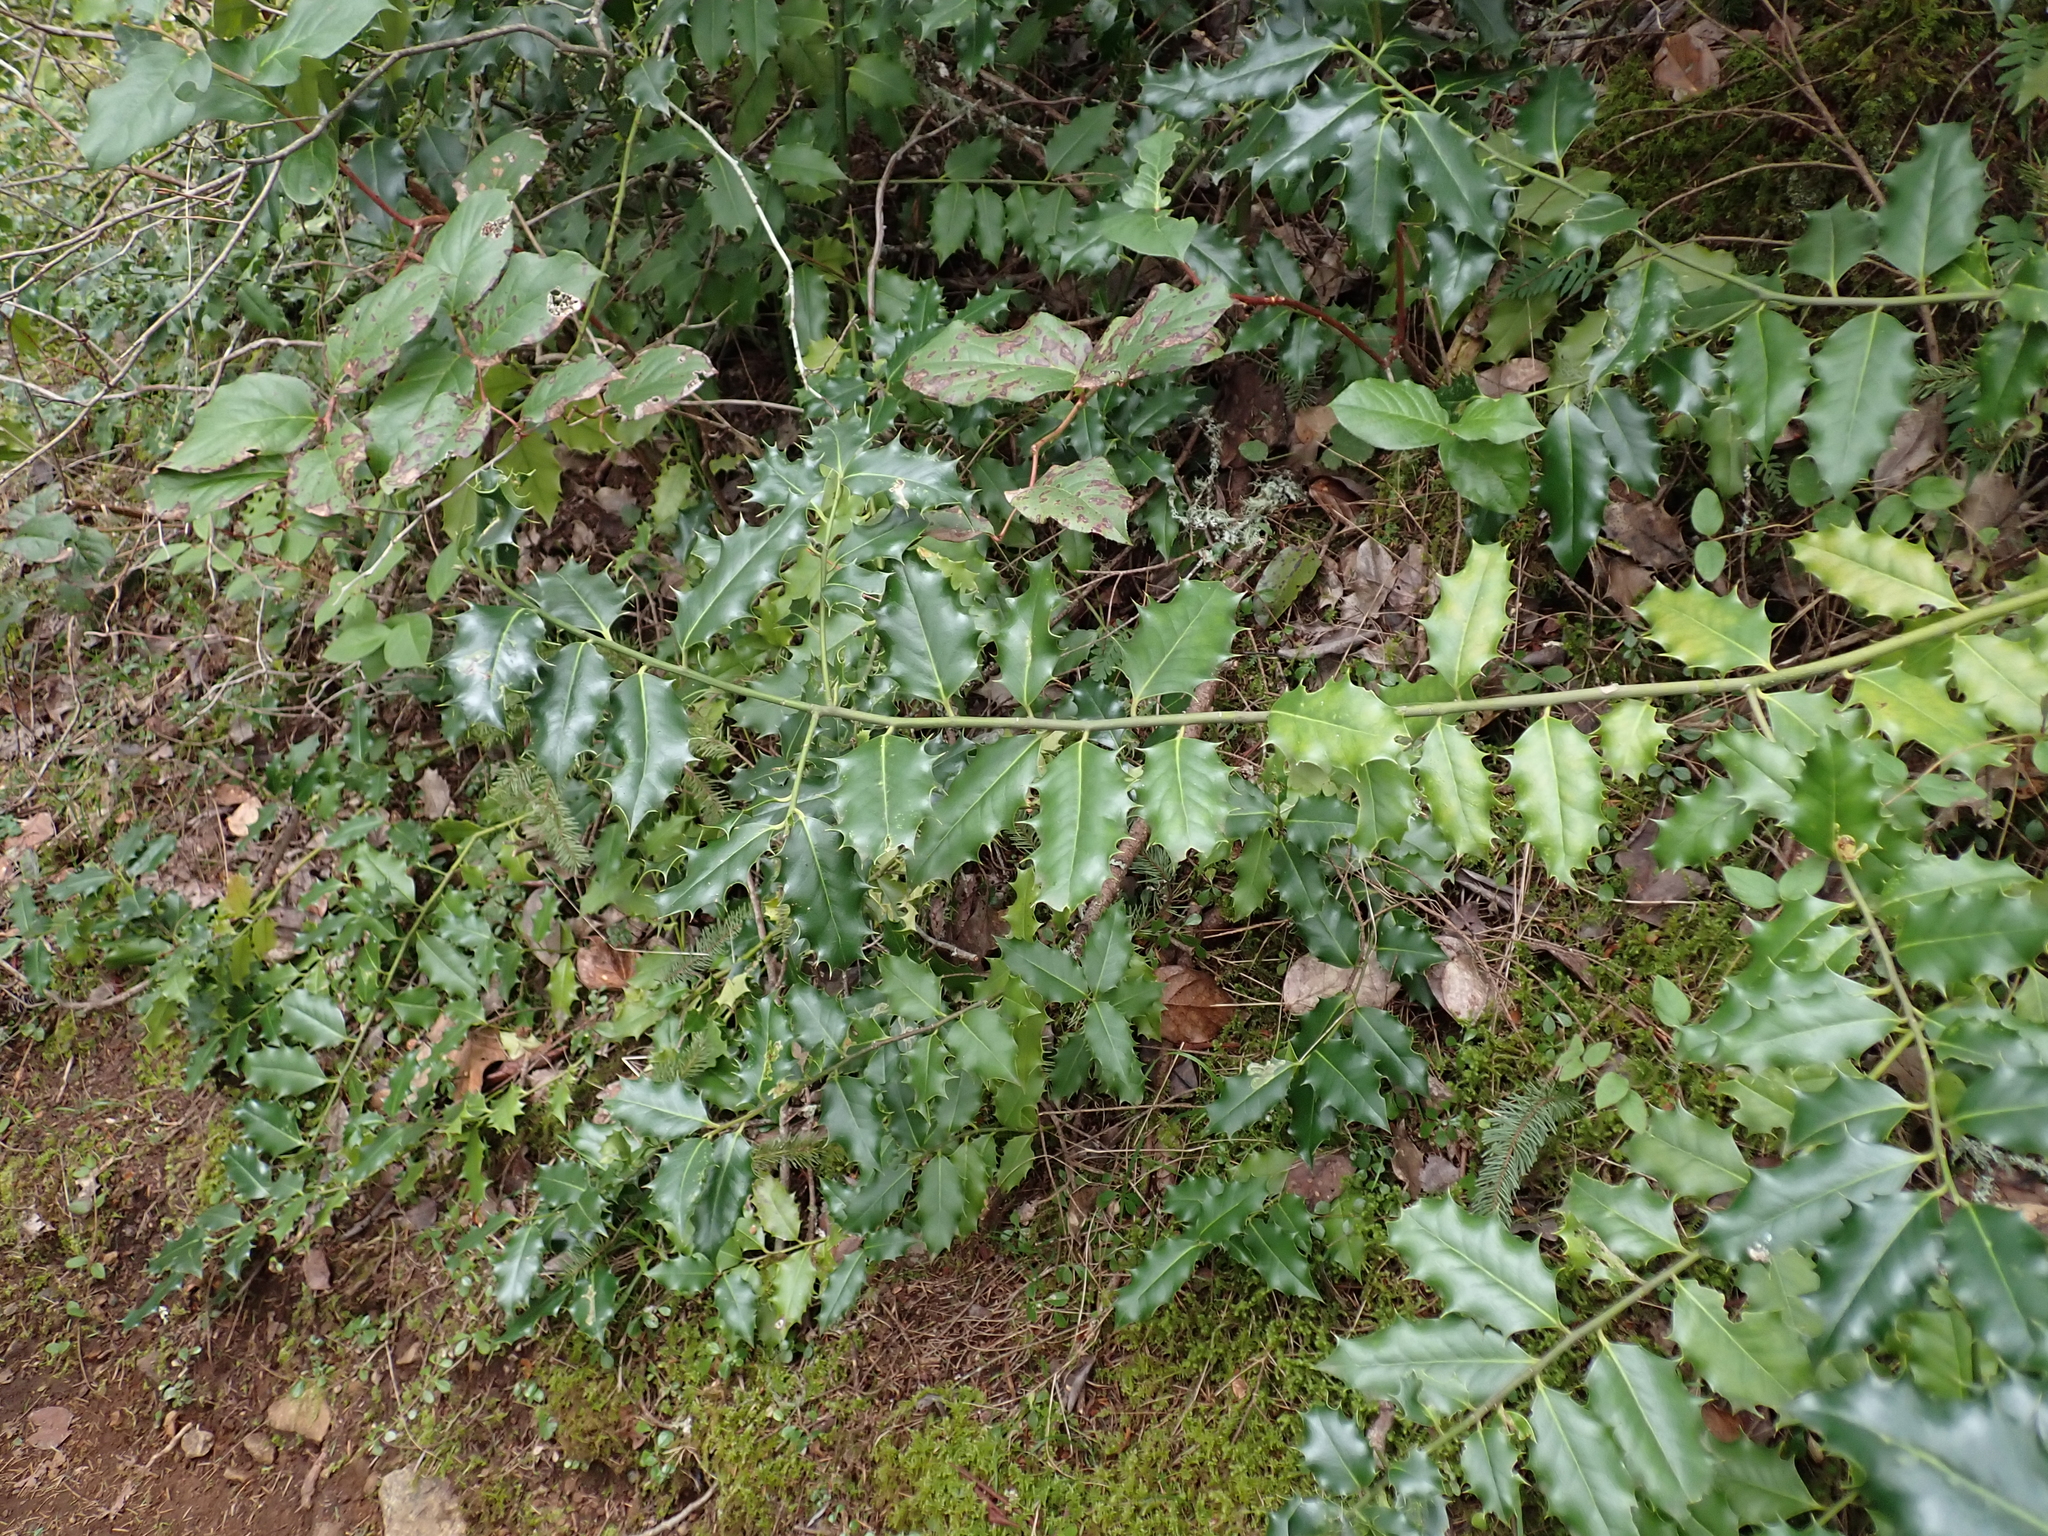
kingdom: Plantae
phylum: Tracheophyta
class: Magnoliopsida
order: Aquifoliales
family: Aquifoliaceae
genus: Ilex
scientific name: Ilex aquifolium
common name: English holly
